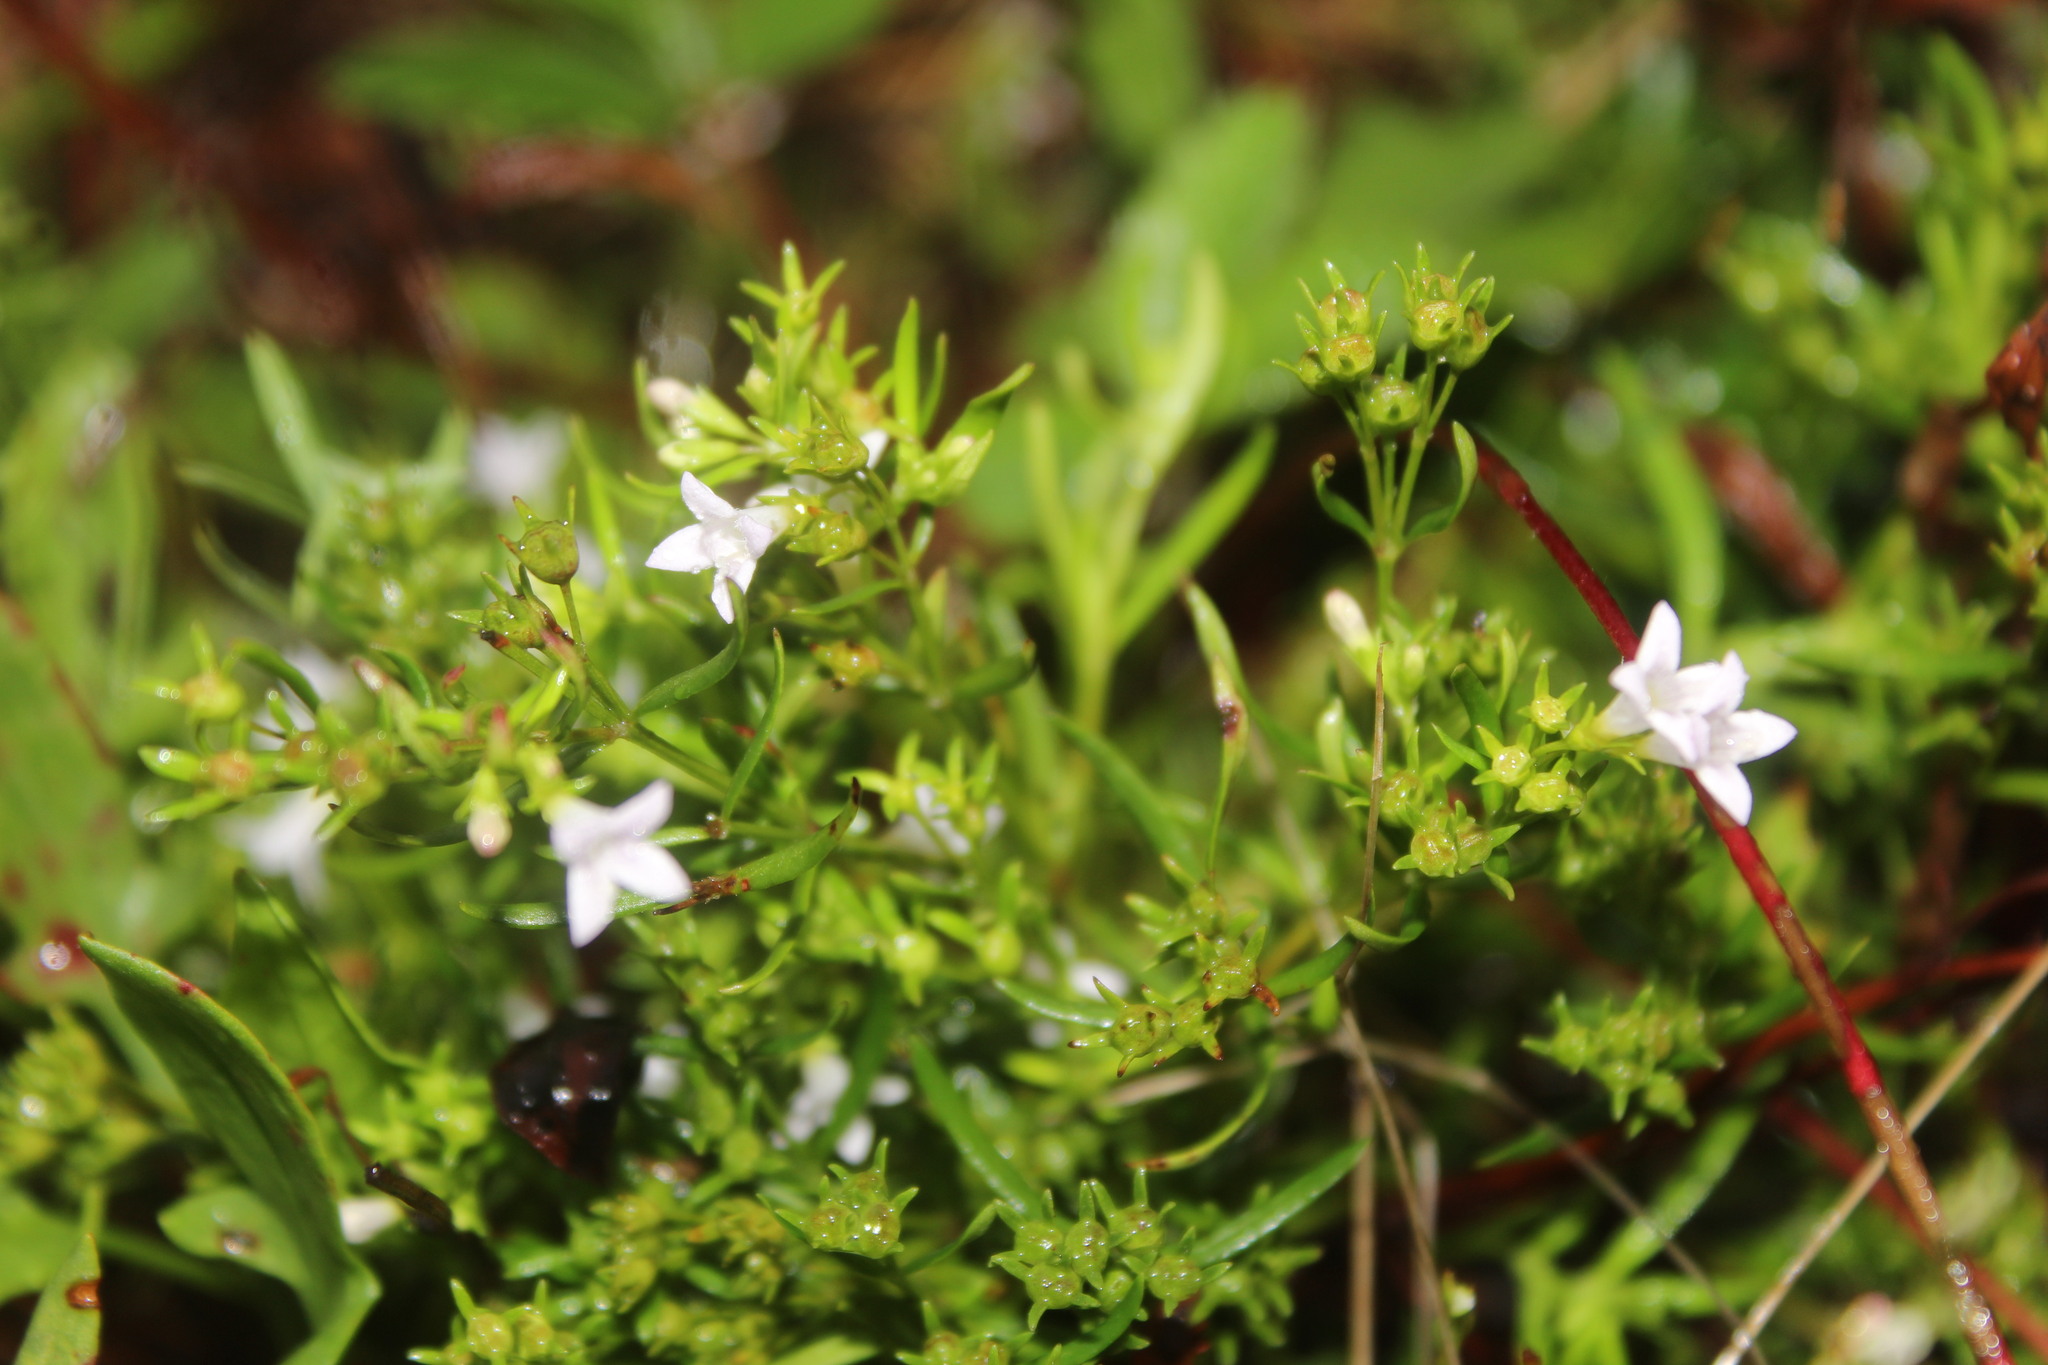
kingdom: Plantae
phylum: Tracheophyta
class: Magnoliopsida
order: Gentianales
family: Rubiaceae
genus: Houstonia
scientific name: Houstonia longifolia
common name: Long-leaved bluets
